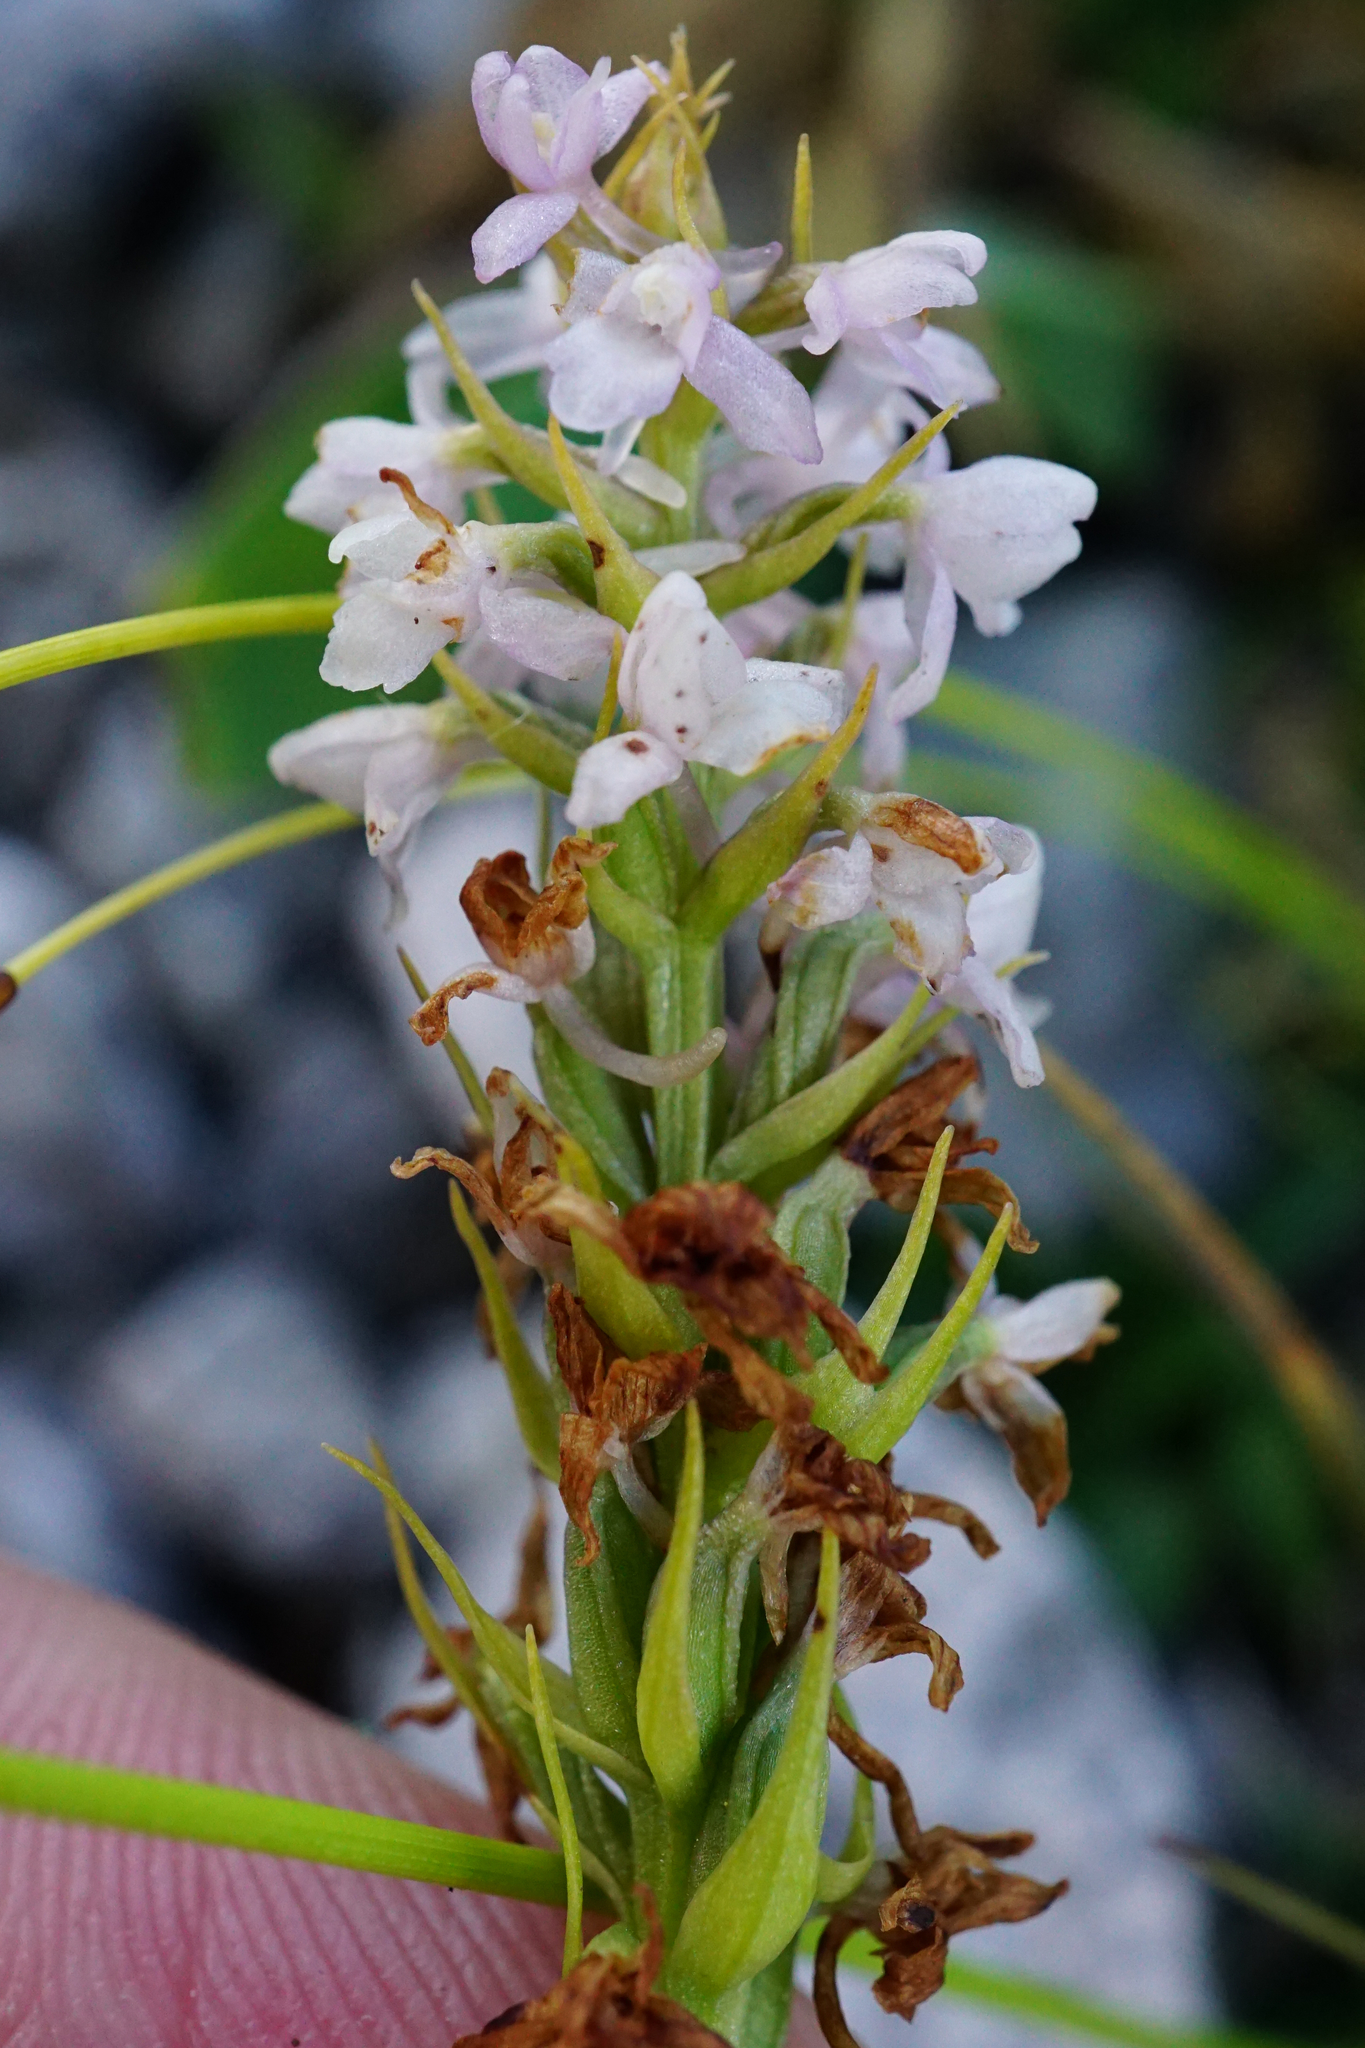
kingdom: Plantae
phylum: Tracheophyta
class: Liliopsida
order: Asparagales
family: Orchidaceae
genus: Gymnadenia
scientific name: Gymnadenia odoratissima
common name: Scented gymnadenia
